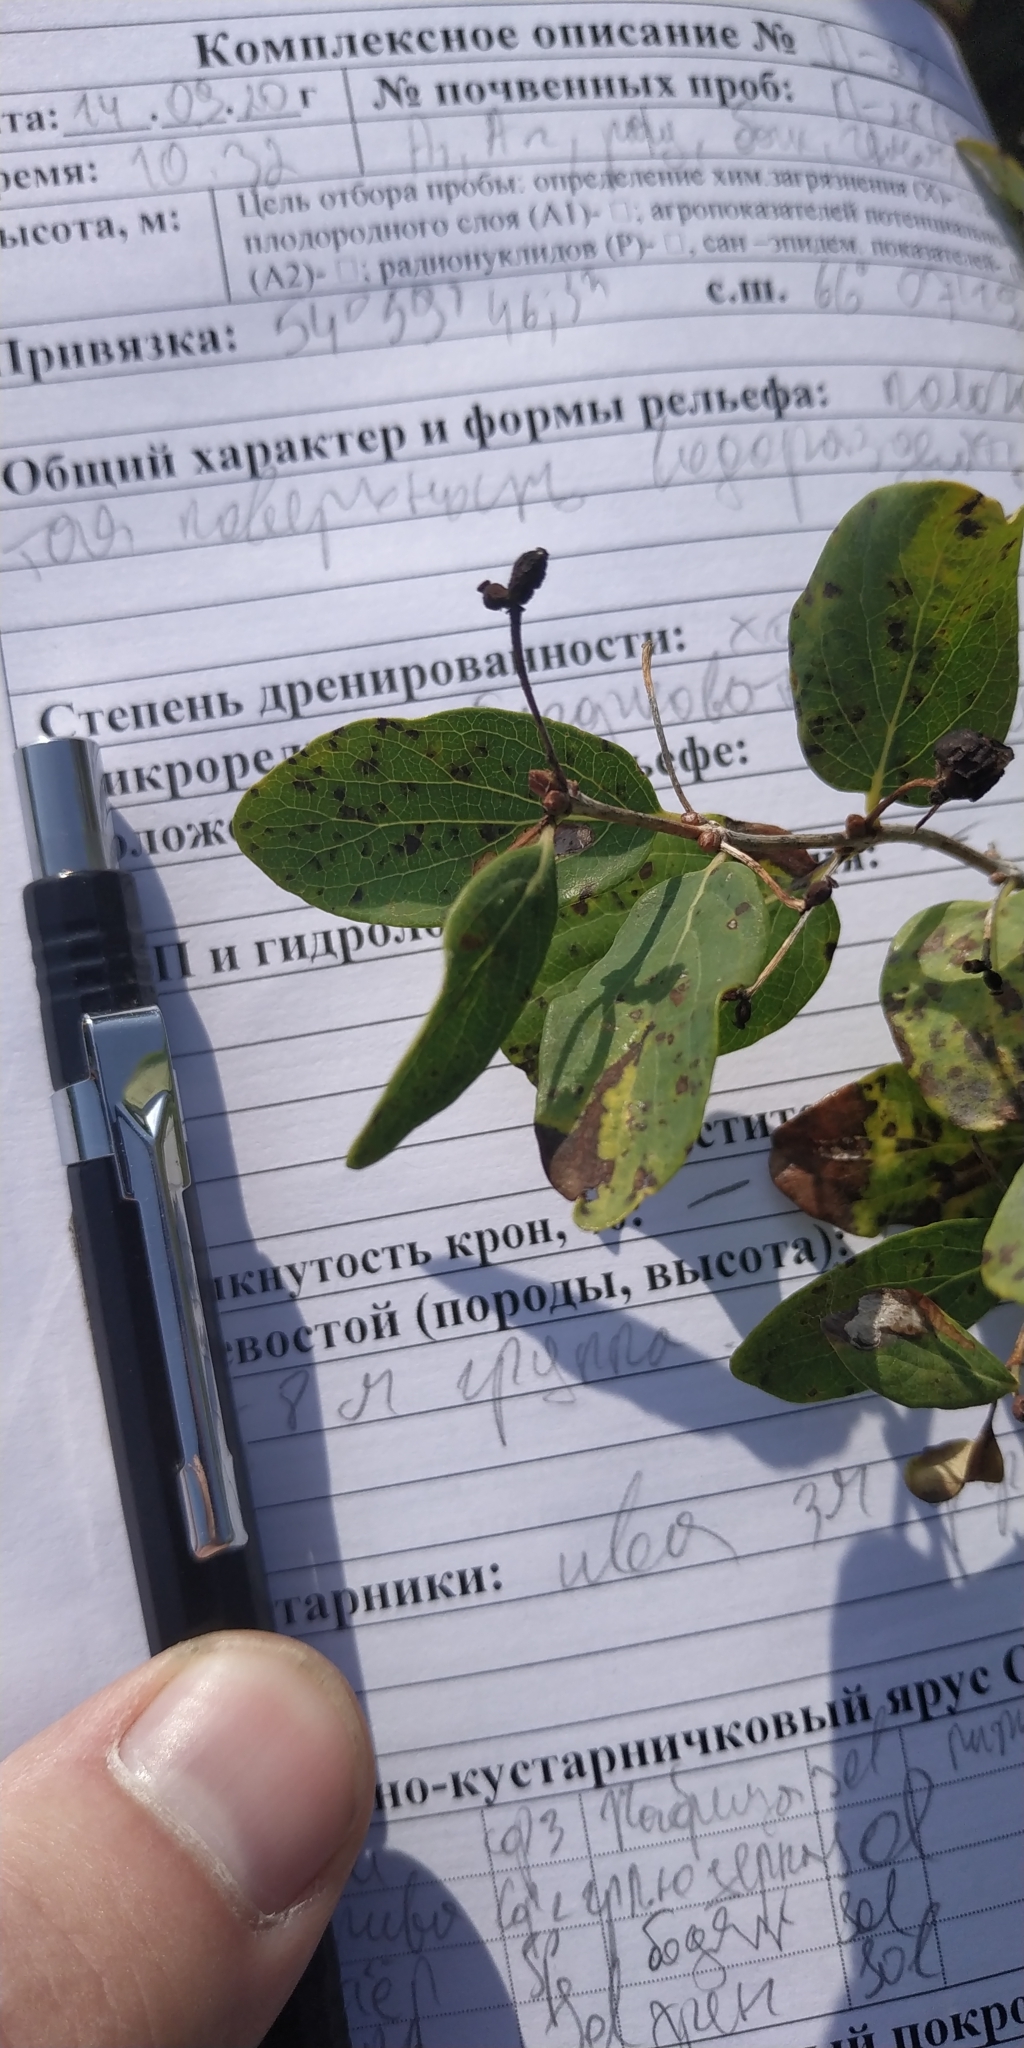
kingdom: Plantae
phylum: Tracheophyta
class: Magnoliopsida
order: Dipsacales
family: Caprifoliaceae
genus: Lonicera
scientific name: Lonicera tatarica
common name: Tatarian honeysuckle
